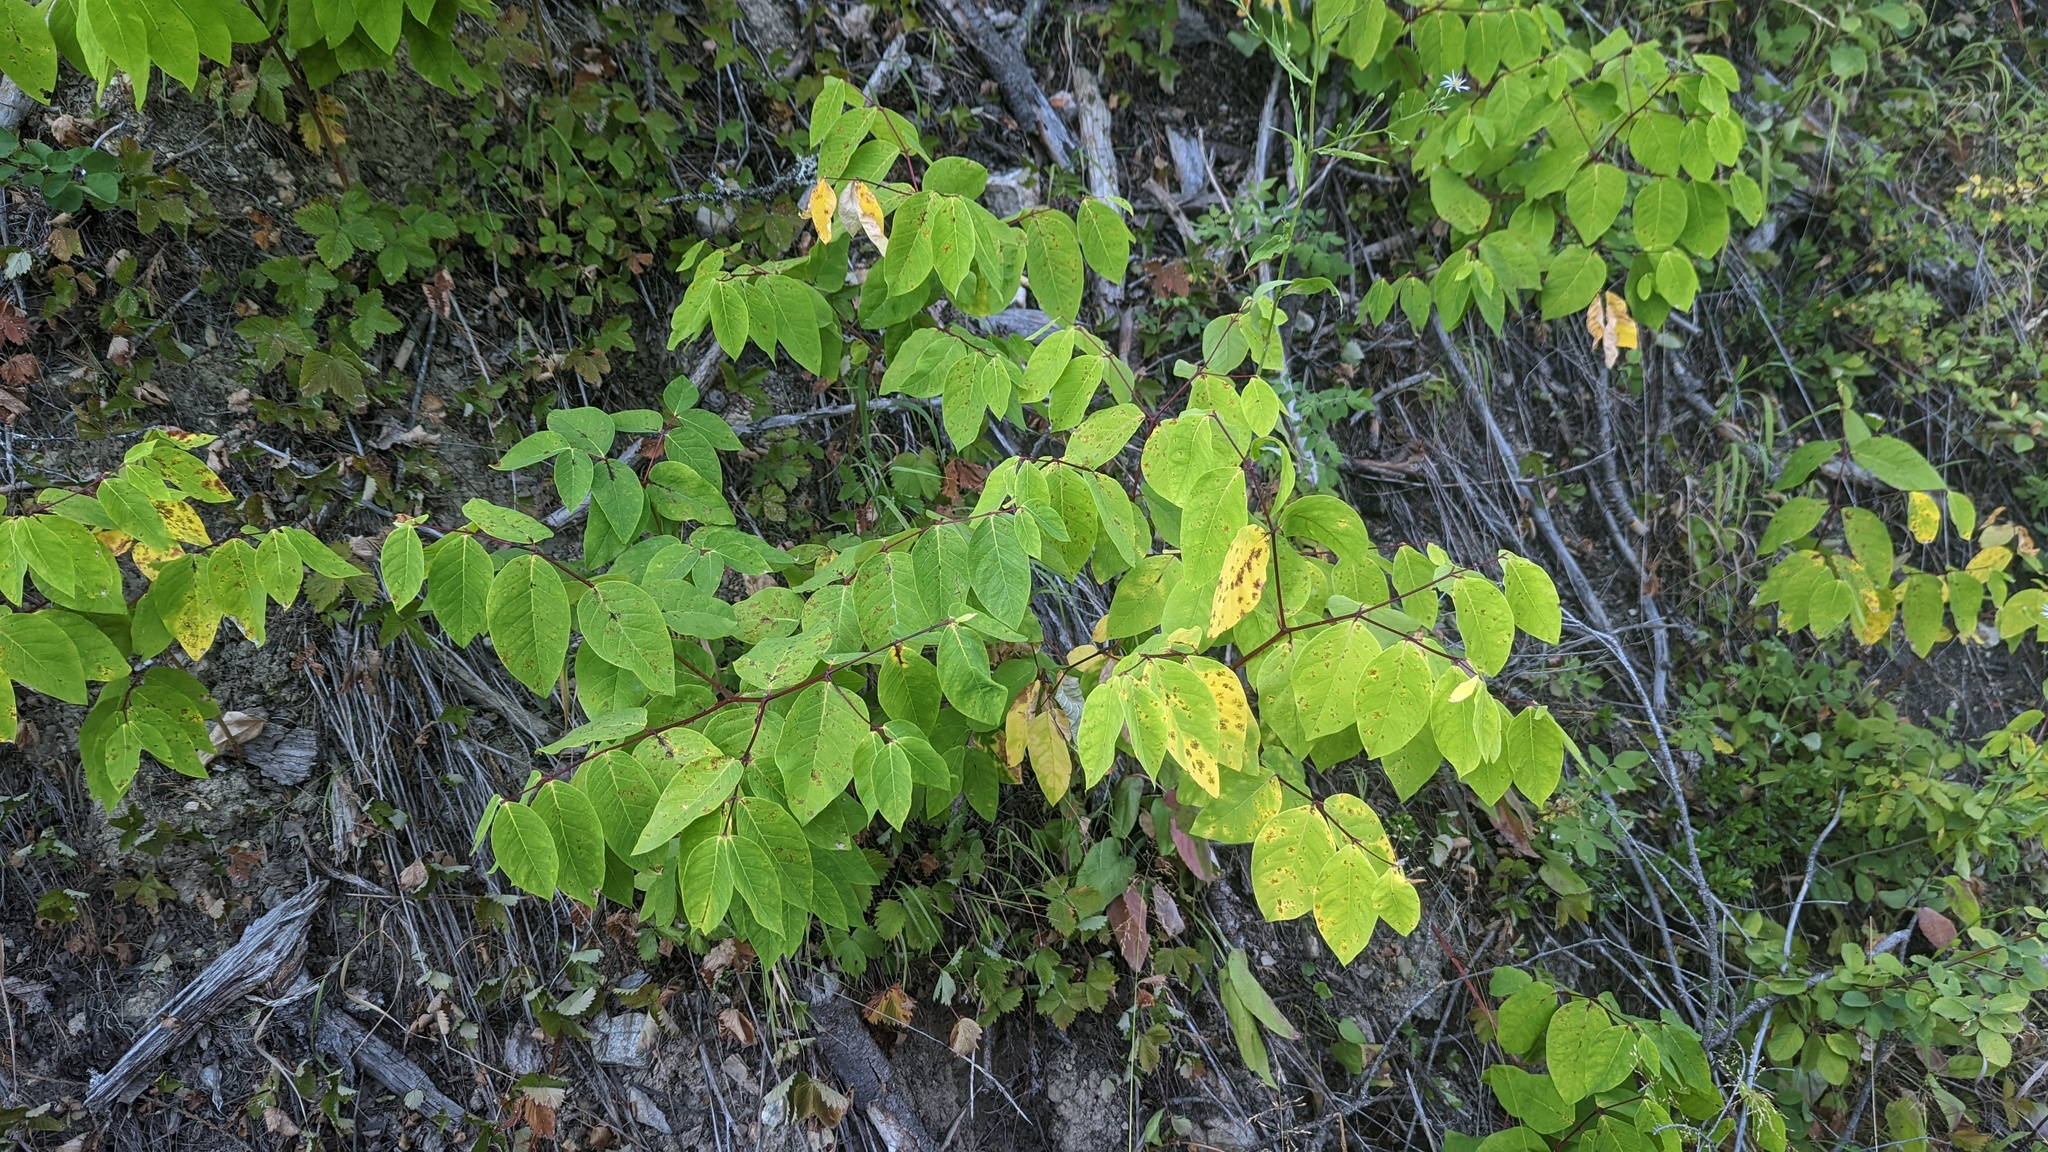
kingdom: Plantae
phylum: Tracheophyta
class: Magnoliopsida
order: Gentianales
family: Apocynaceae
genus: Apocynum
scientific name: Apocynum androsaemifolium
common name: Spreading dogbane
